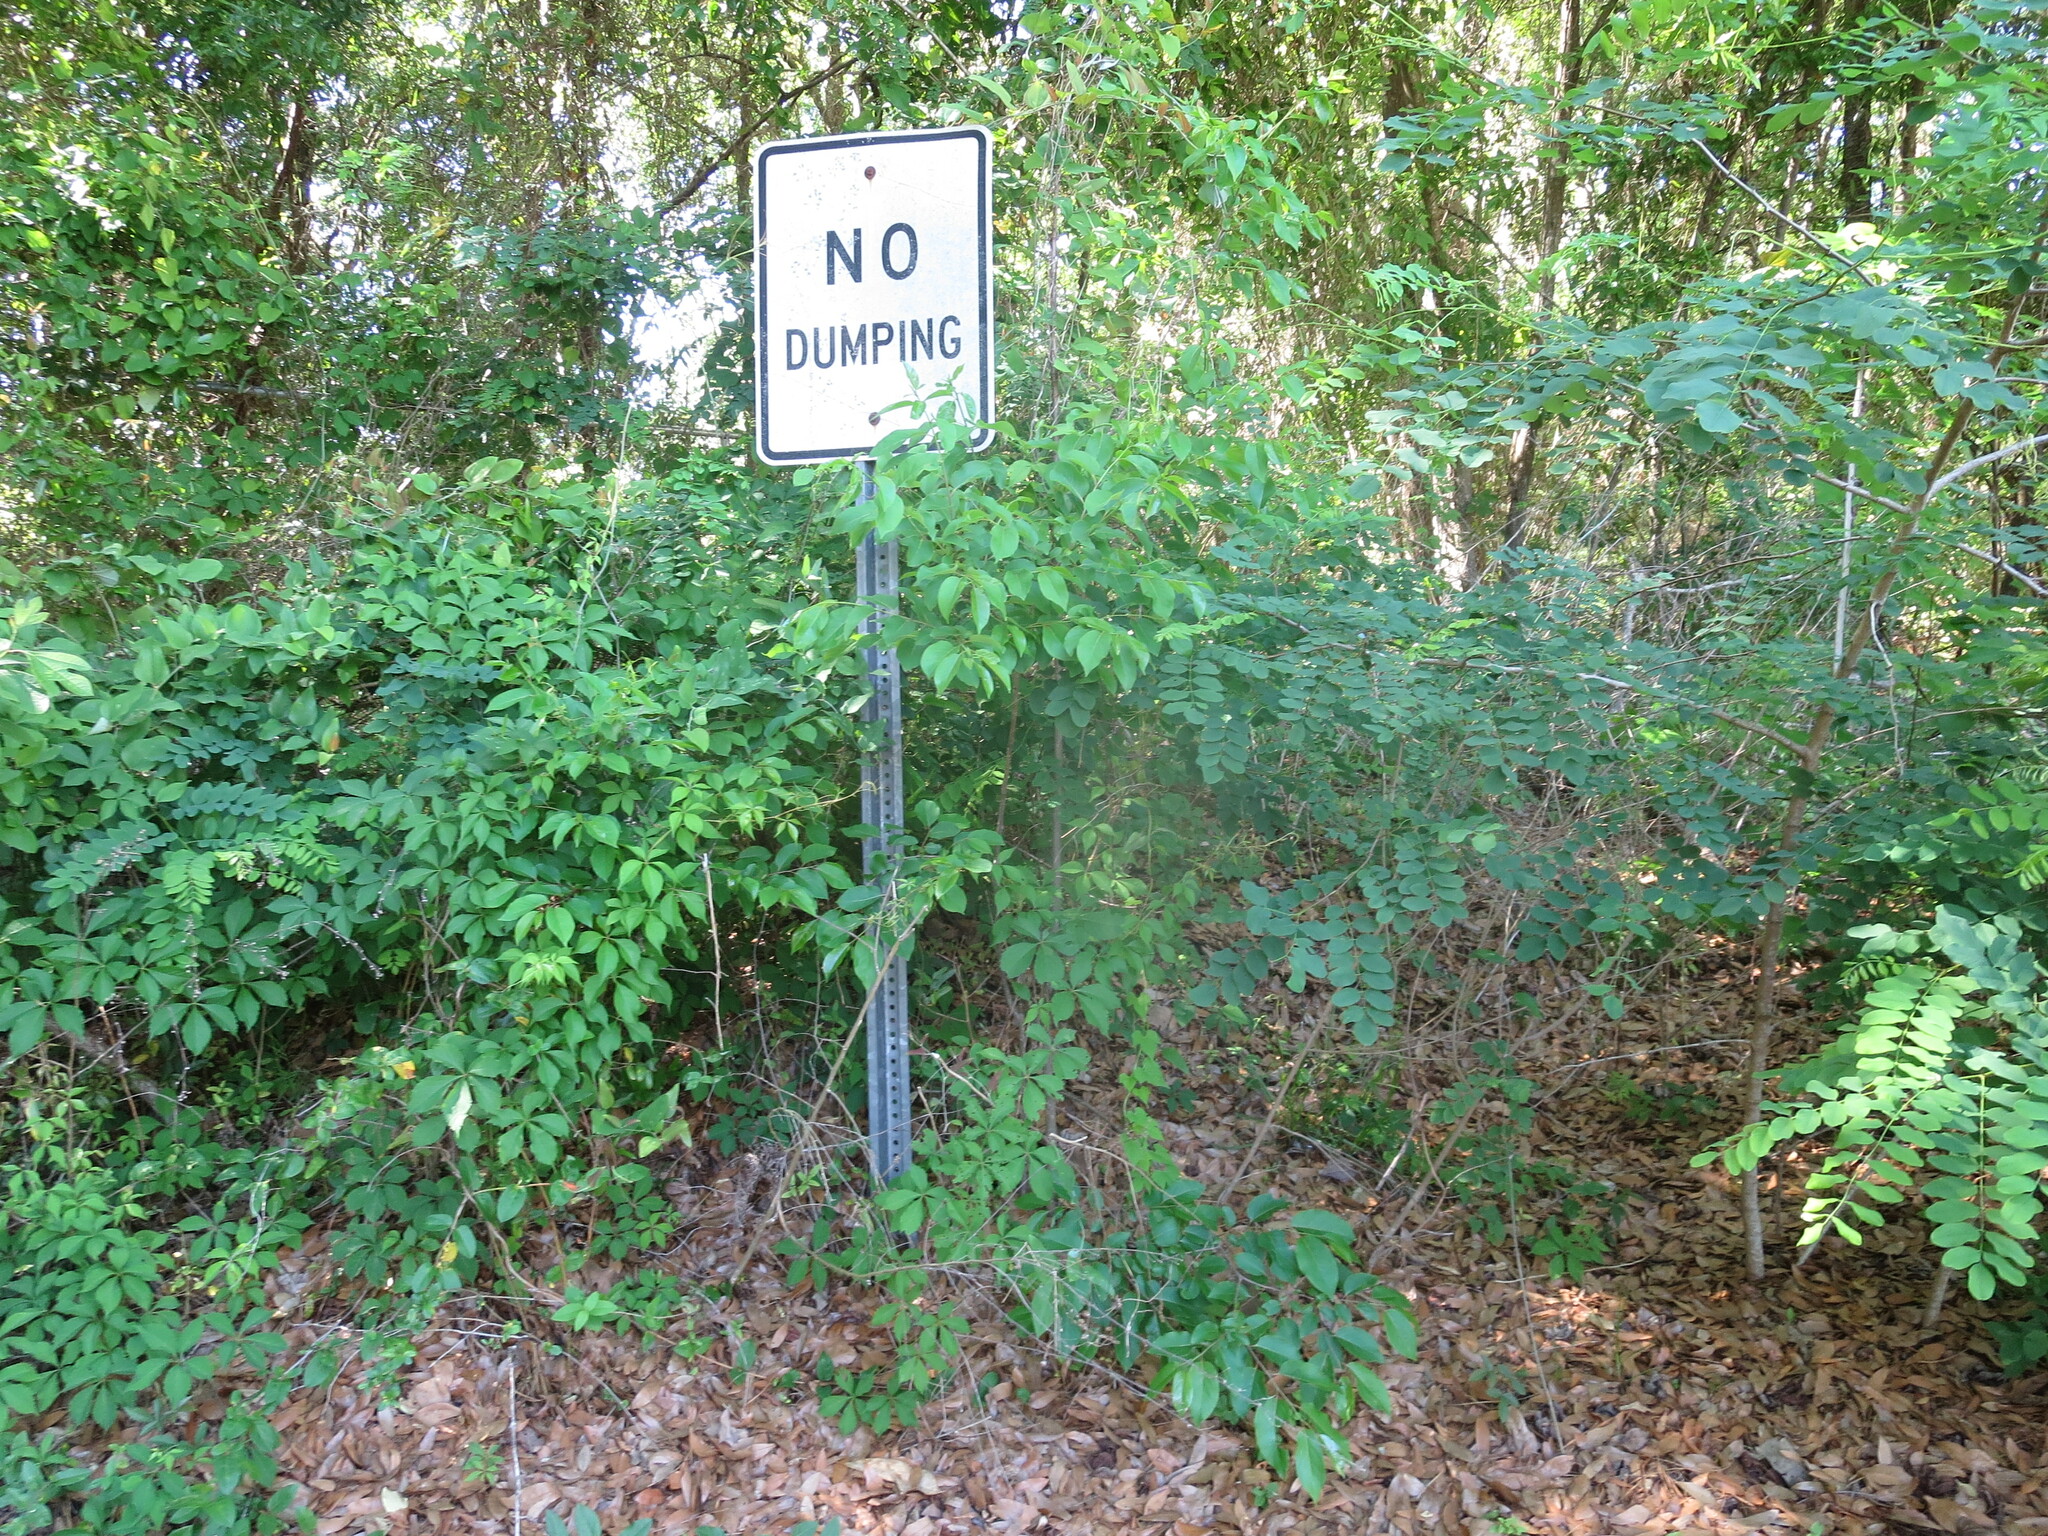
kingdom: Plantae
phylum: Tracheophyta
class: Magnoliopsida
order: Ericales
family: Ebenaceae
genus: Diospyros
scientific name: Diospyros virginiana
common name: Persimmon
